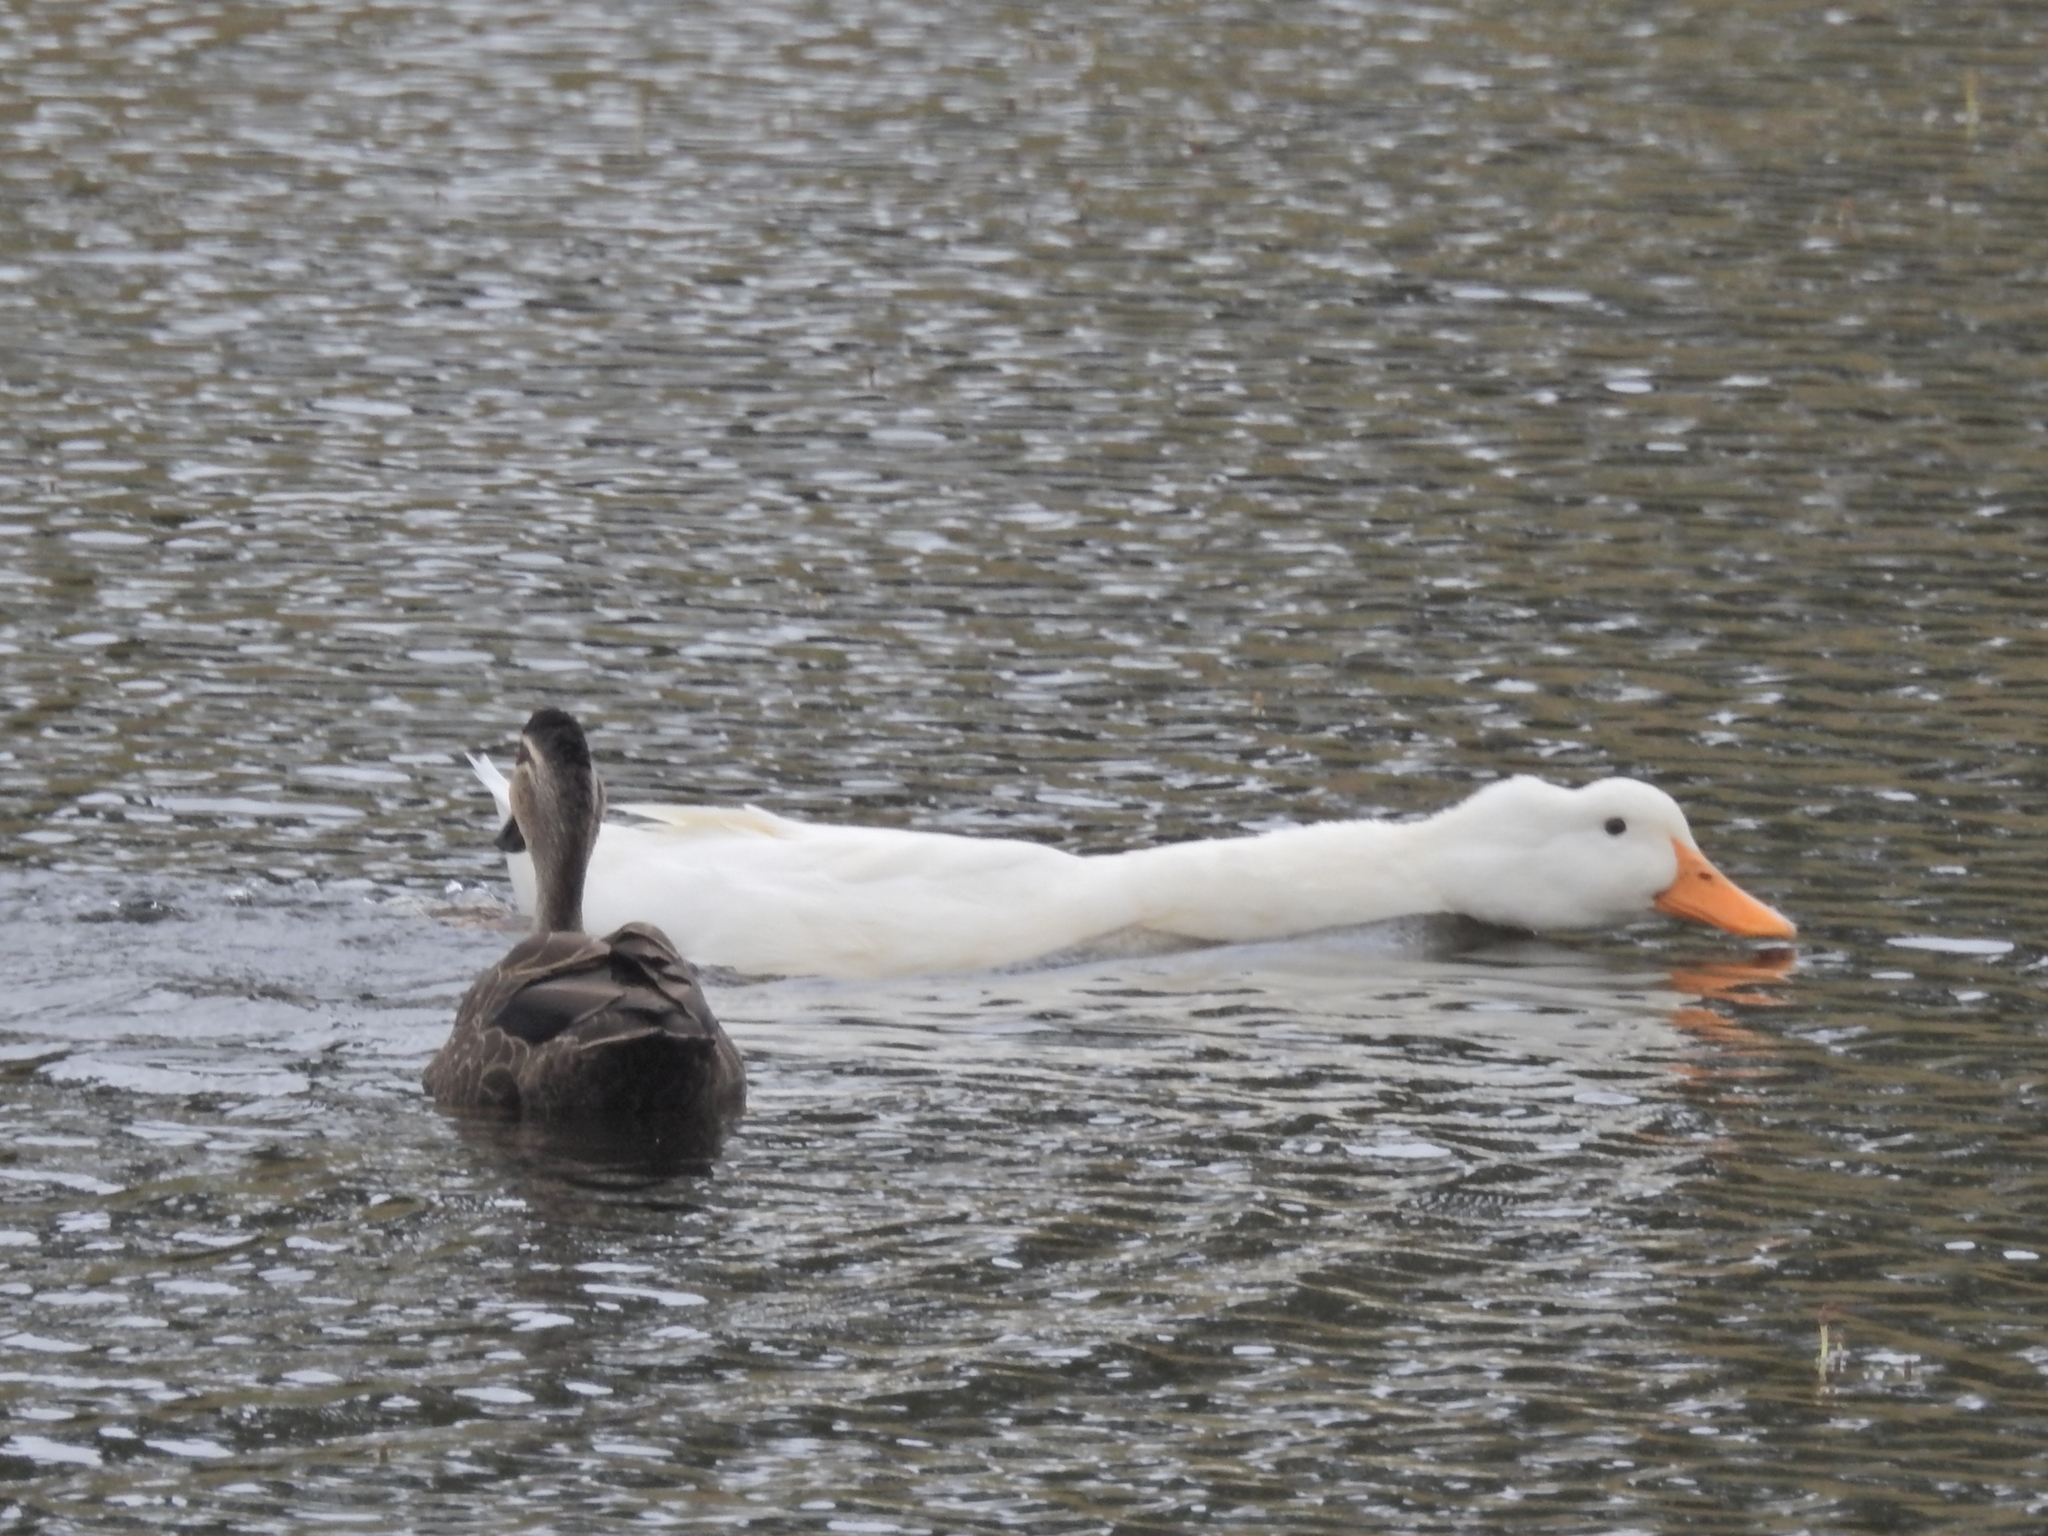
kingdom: Animalia
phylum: Chordata
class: Aves
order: Anseriformes
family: Anatidae
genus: Anas
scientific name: Anas platyrhynchos
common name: Mallard
